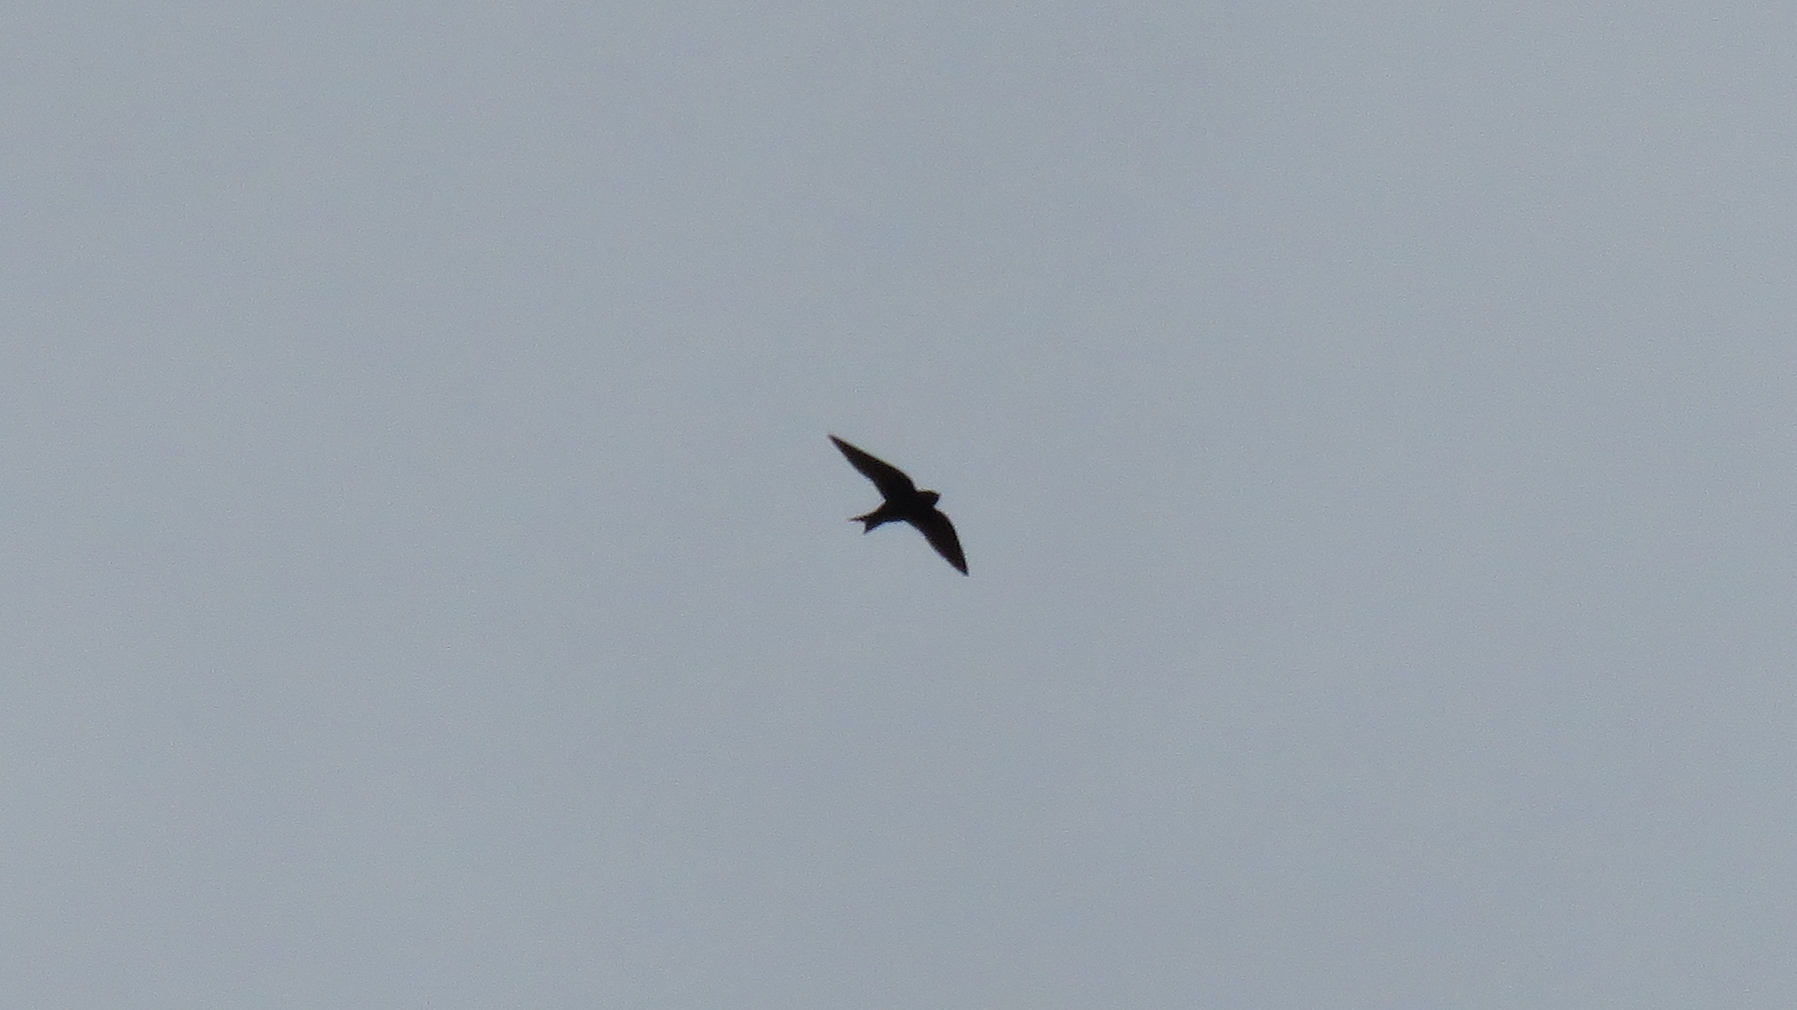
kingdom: Animalia
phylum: Chordata
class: Aves
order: Passeriformes
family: Hirundinidae
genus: Progne
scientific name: Progne subis
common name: Purple martin
